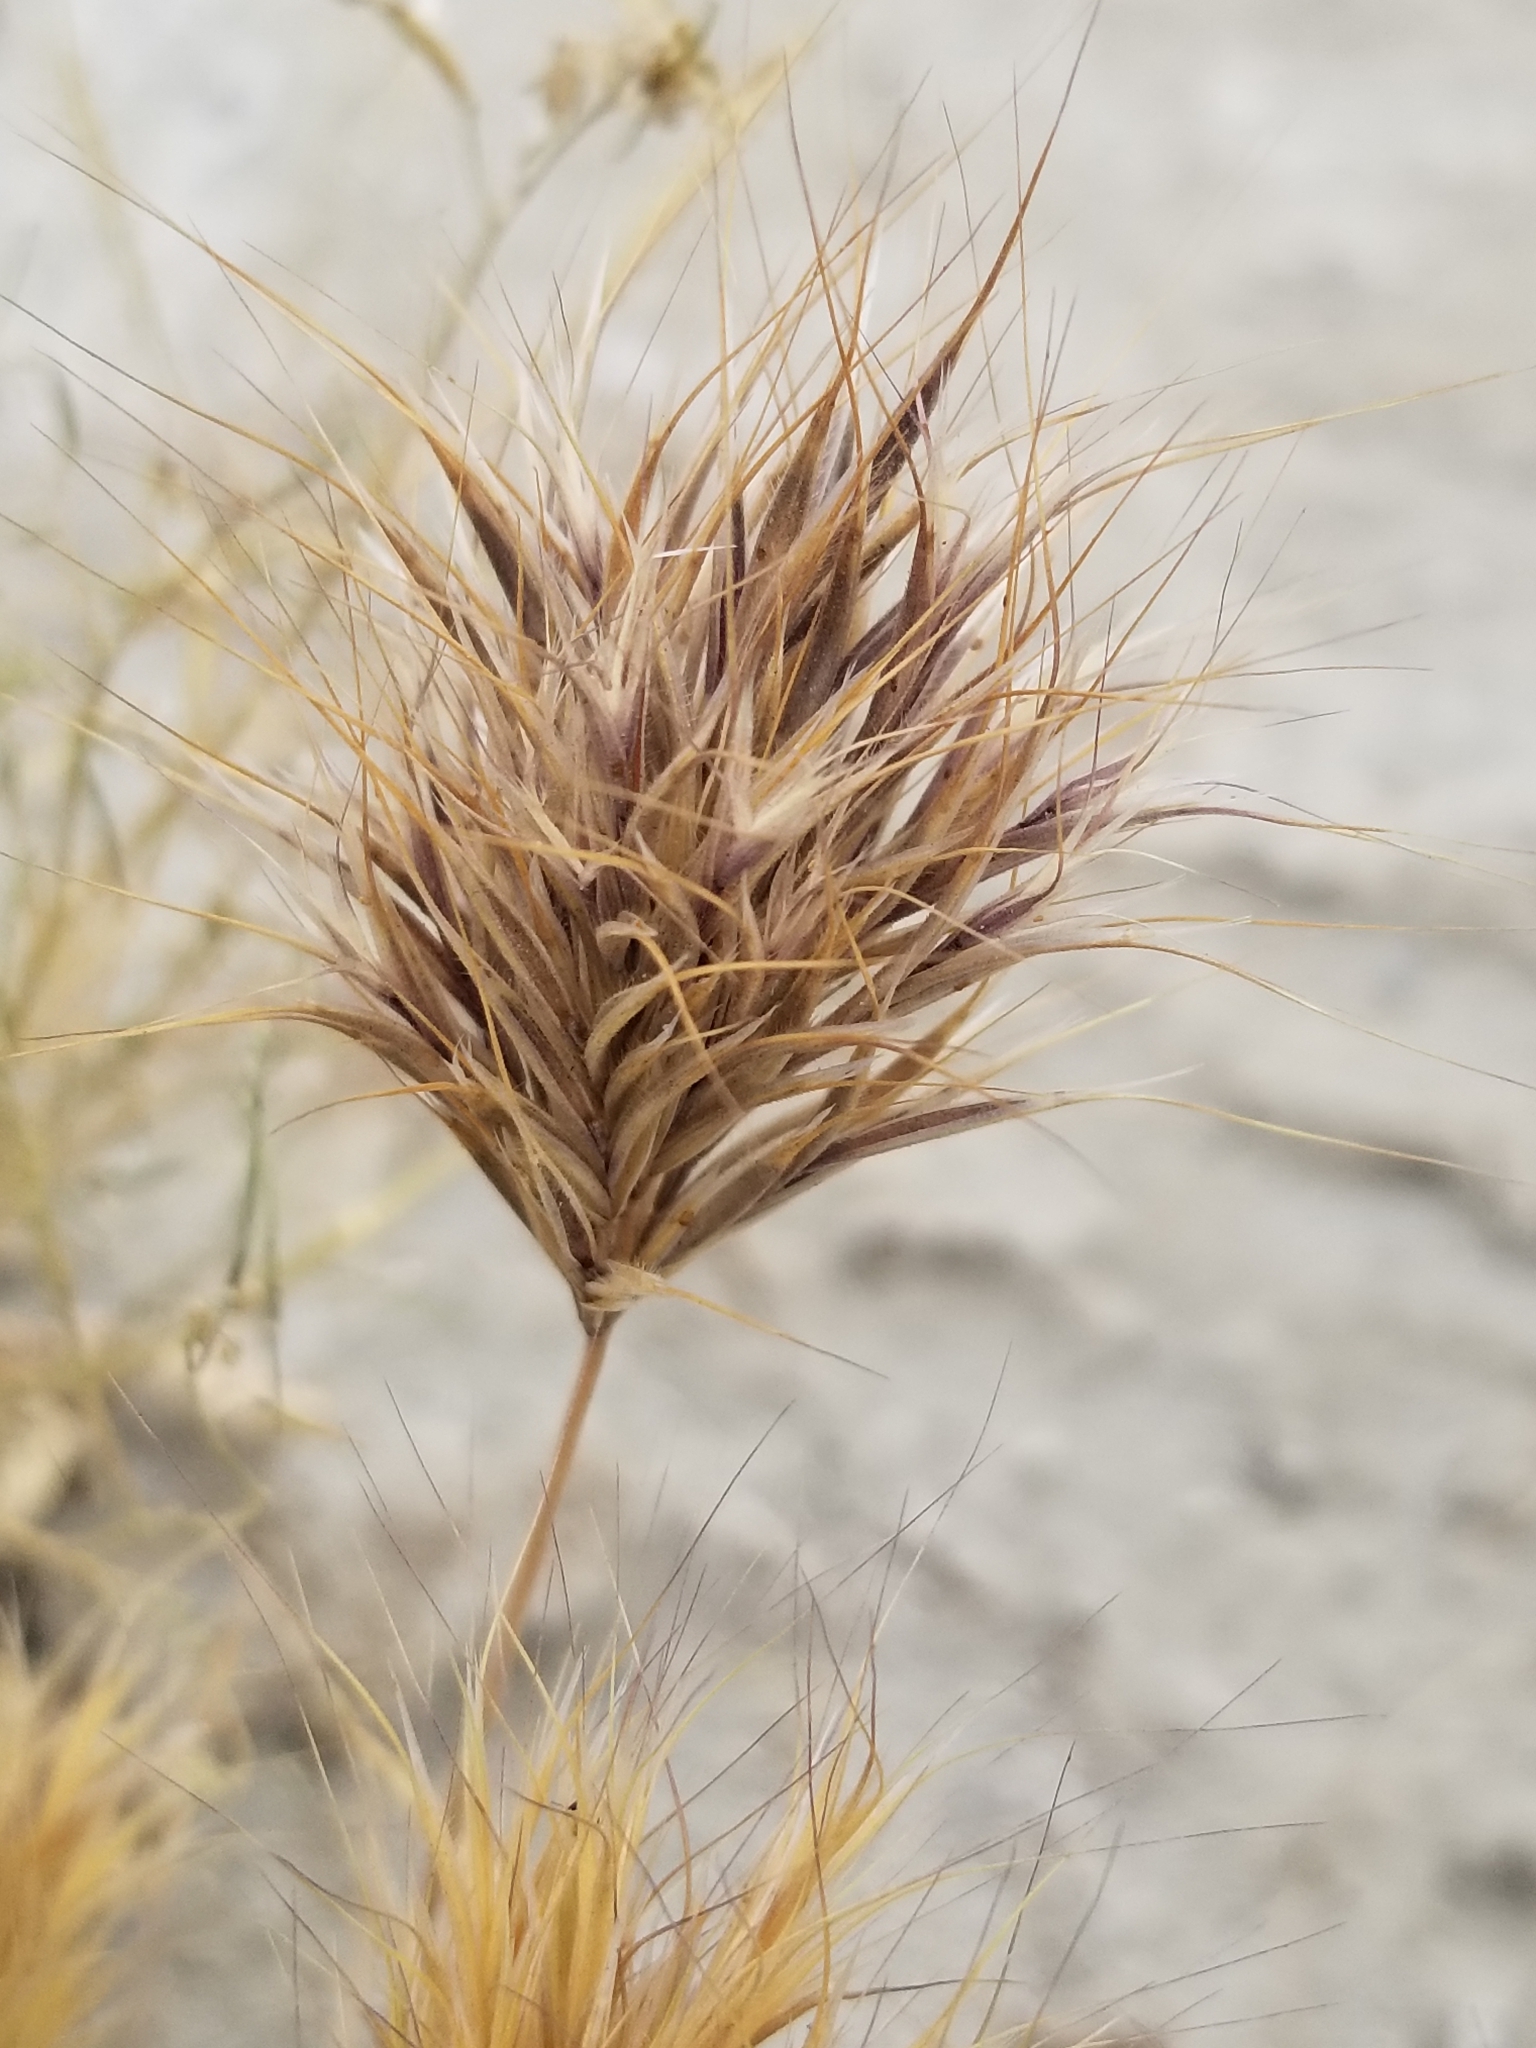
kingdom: Plantae
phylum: Tracheophyta
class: Liliopsida
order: Poales
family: Poaceae
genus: Bromus
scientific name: Bromus rubens
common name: Red brome
